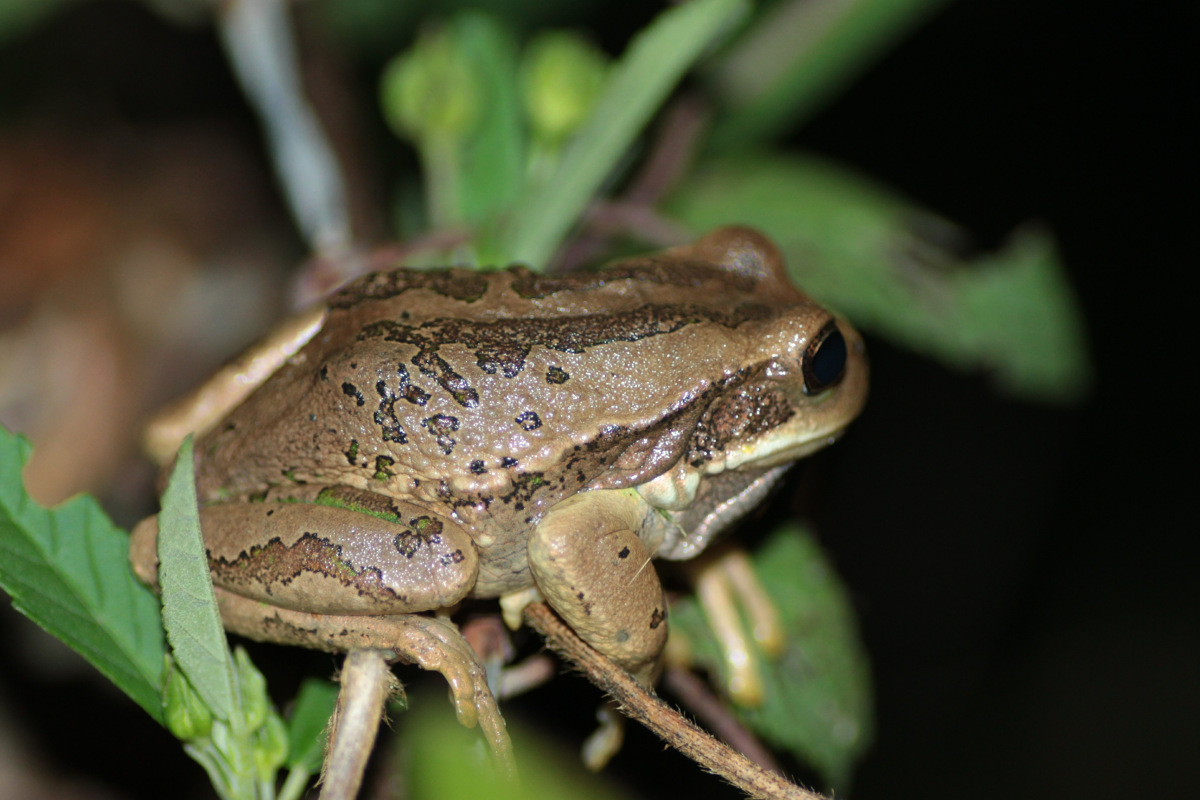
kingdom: Animalia
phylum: Chordata
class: Amphibia
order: Anura
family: Hemiphractidae
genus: Gastrotheca
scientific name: Gastrotheca cuencana
